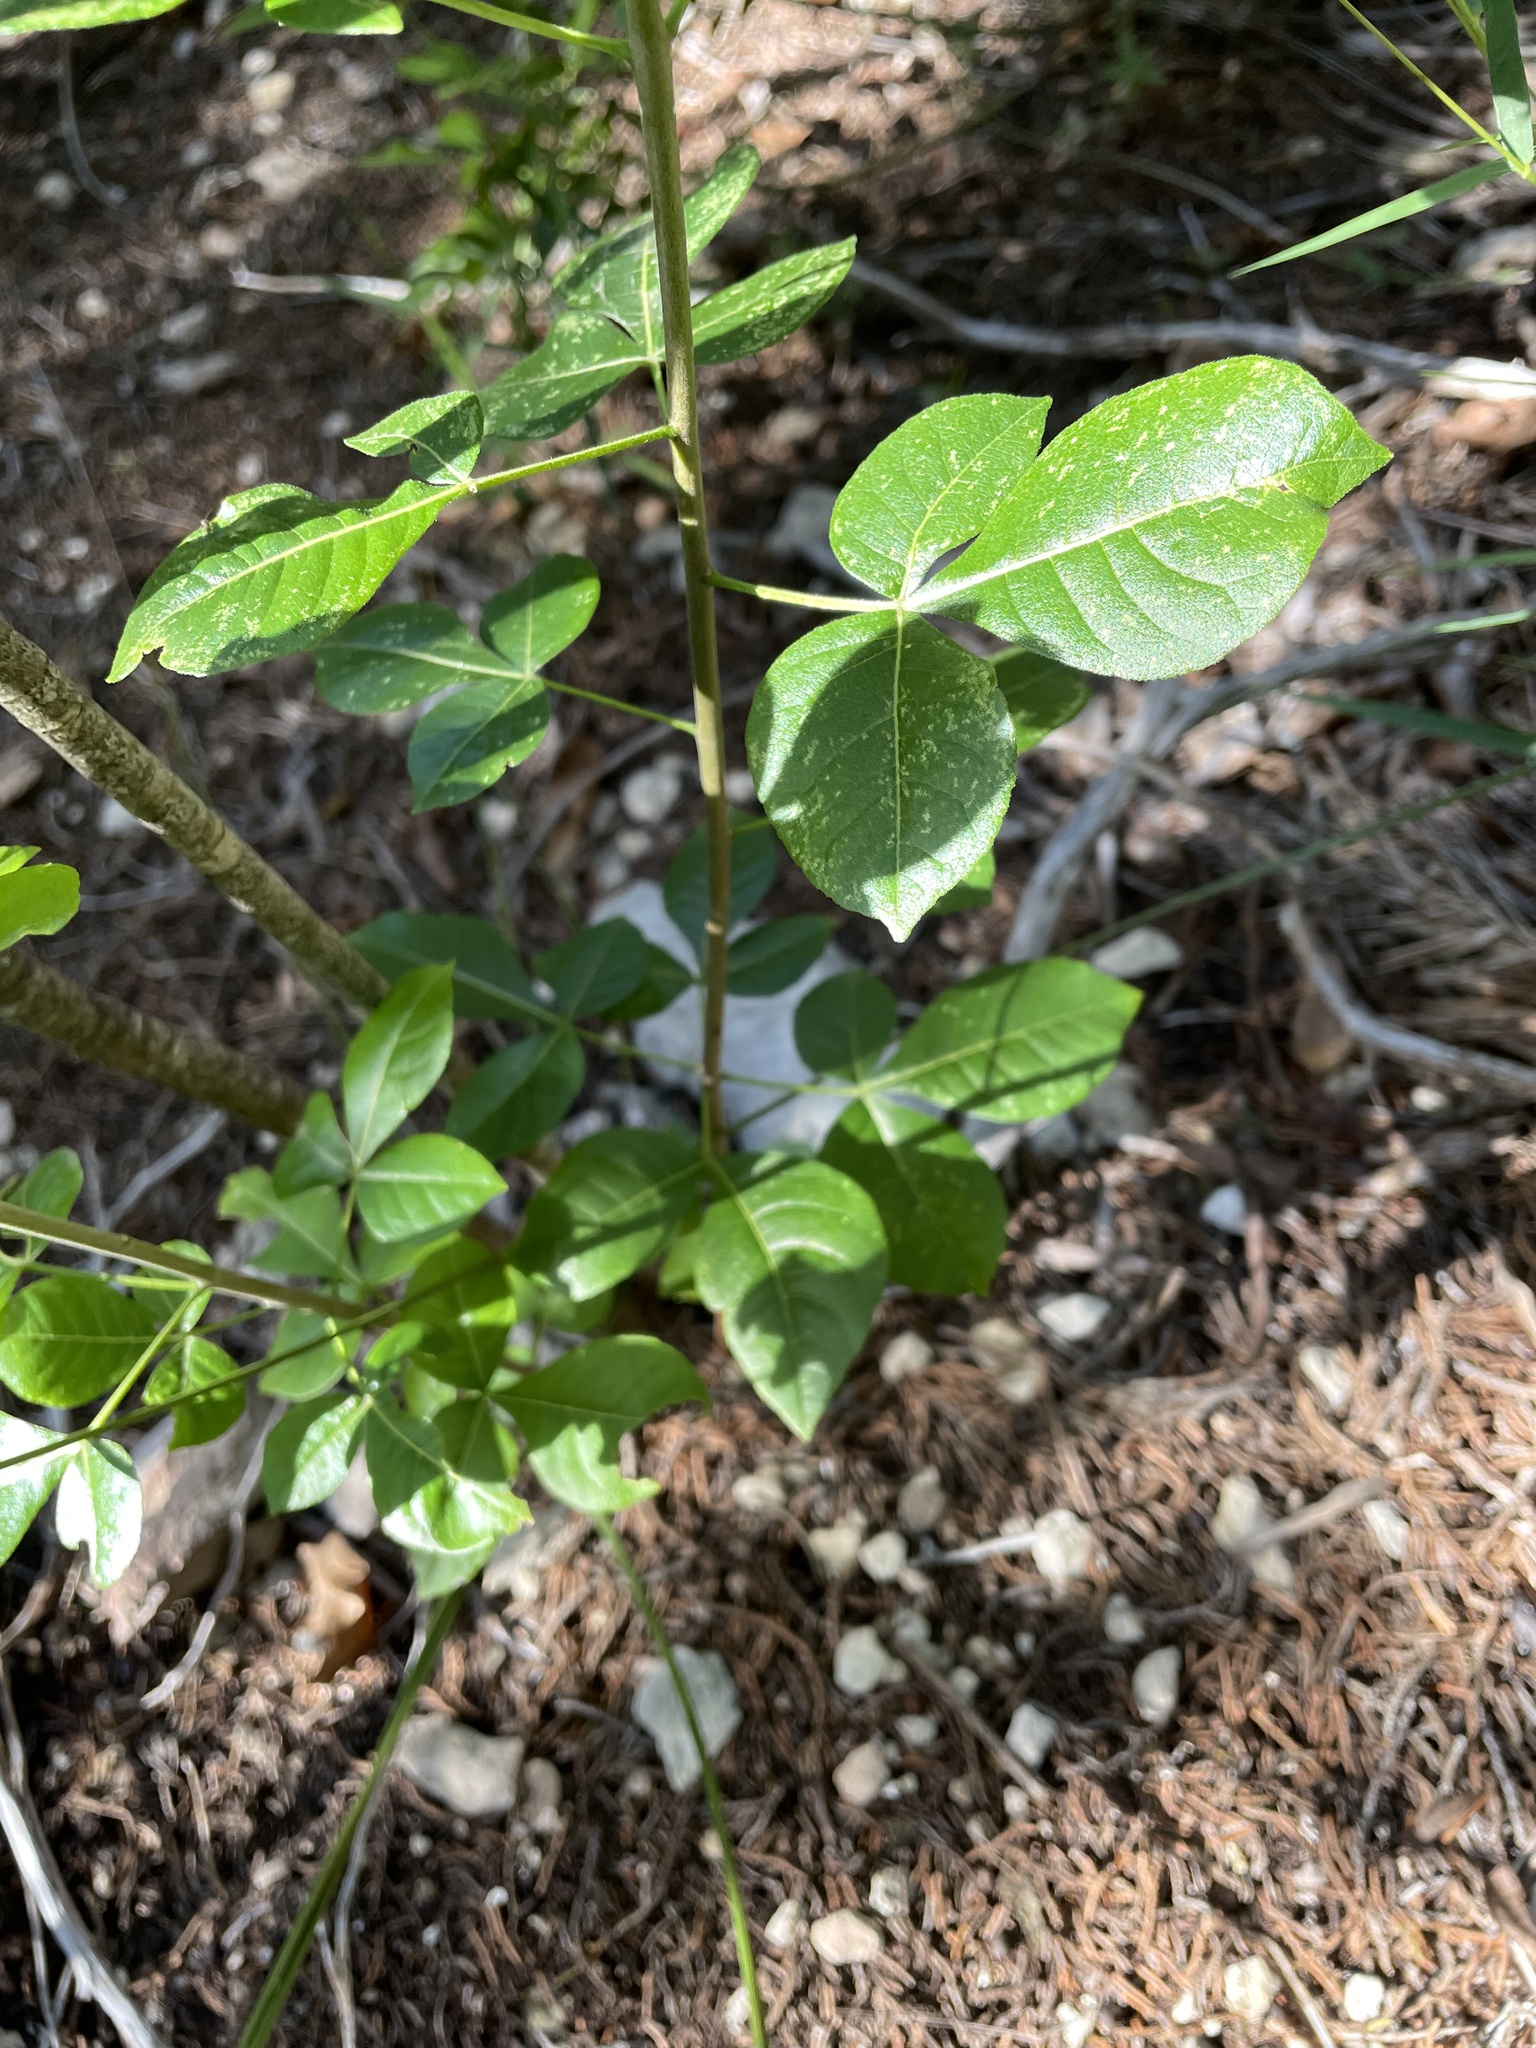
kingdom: Plantae
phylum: Tracheophyta
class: Magnoliopsida
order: Sapindales
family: Rutaceae
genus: Ptelea
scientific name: Ptelea trifoliata
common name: Common hop-tree
